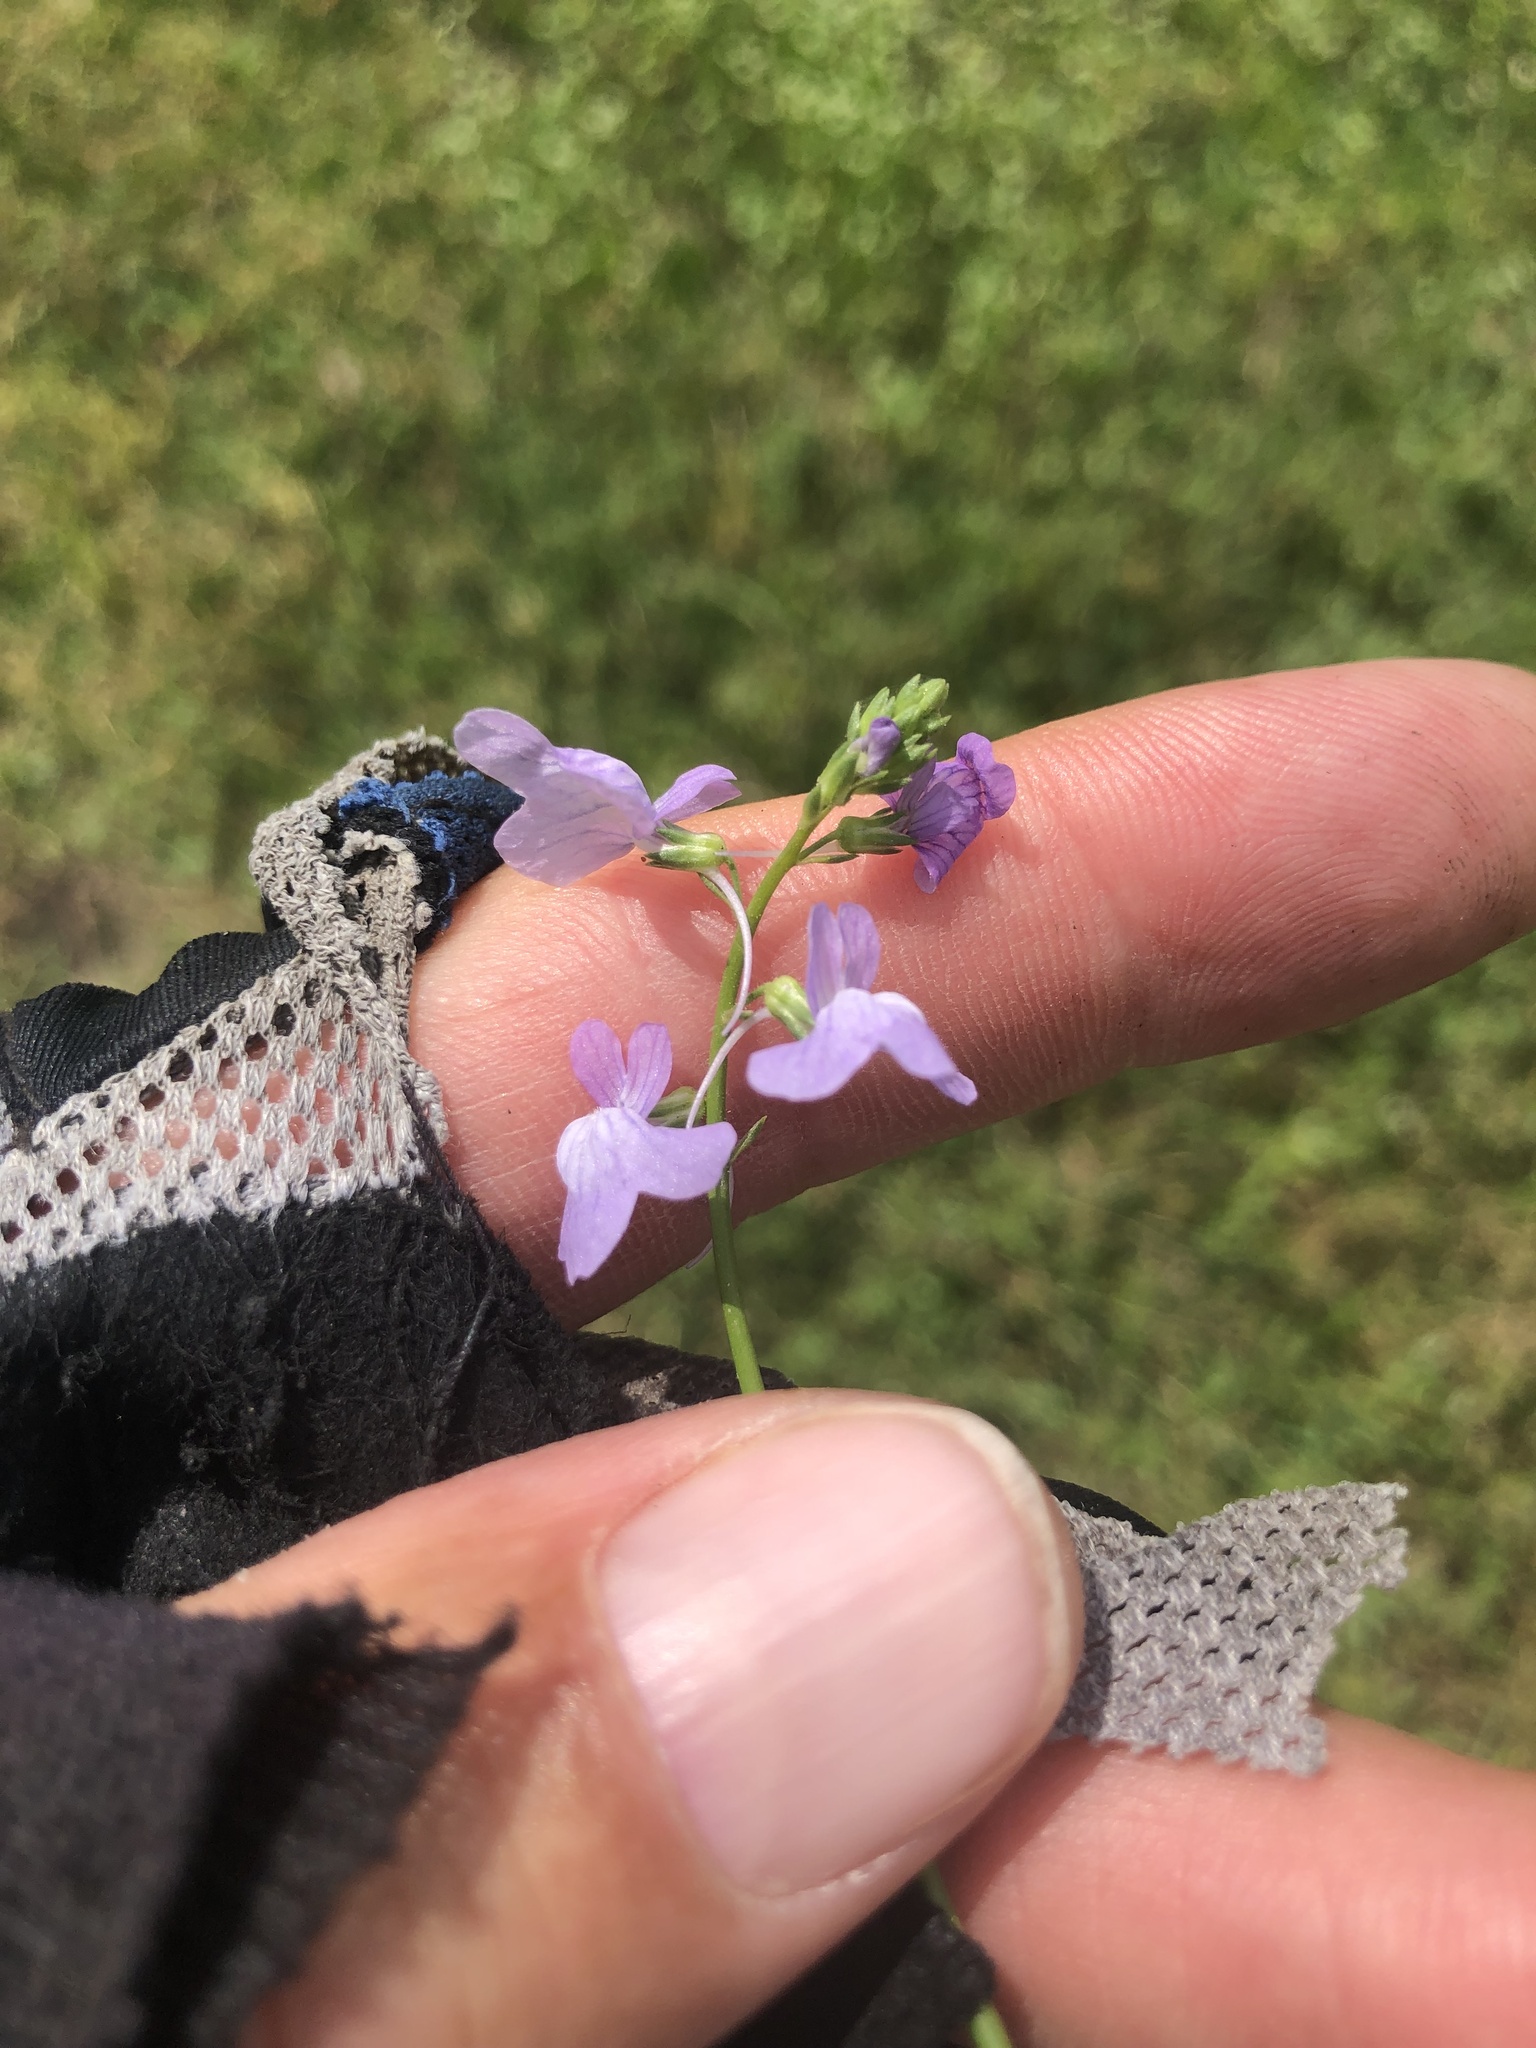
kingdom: Plantae
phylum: Tracheophyta
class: Magnoliopsida
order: Lamiales
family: Plantaginaceae
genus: Nuttallanthus
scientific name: Nuttallanthus texanus
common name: Texas toadflax
